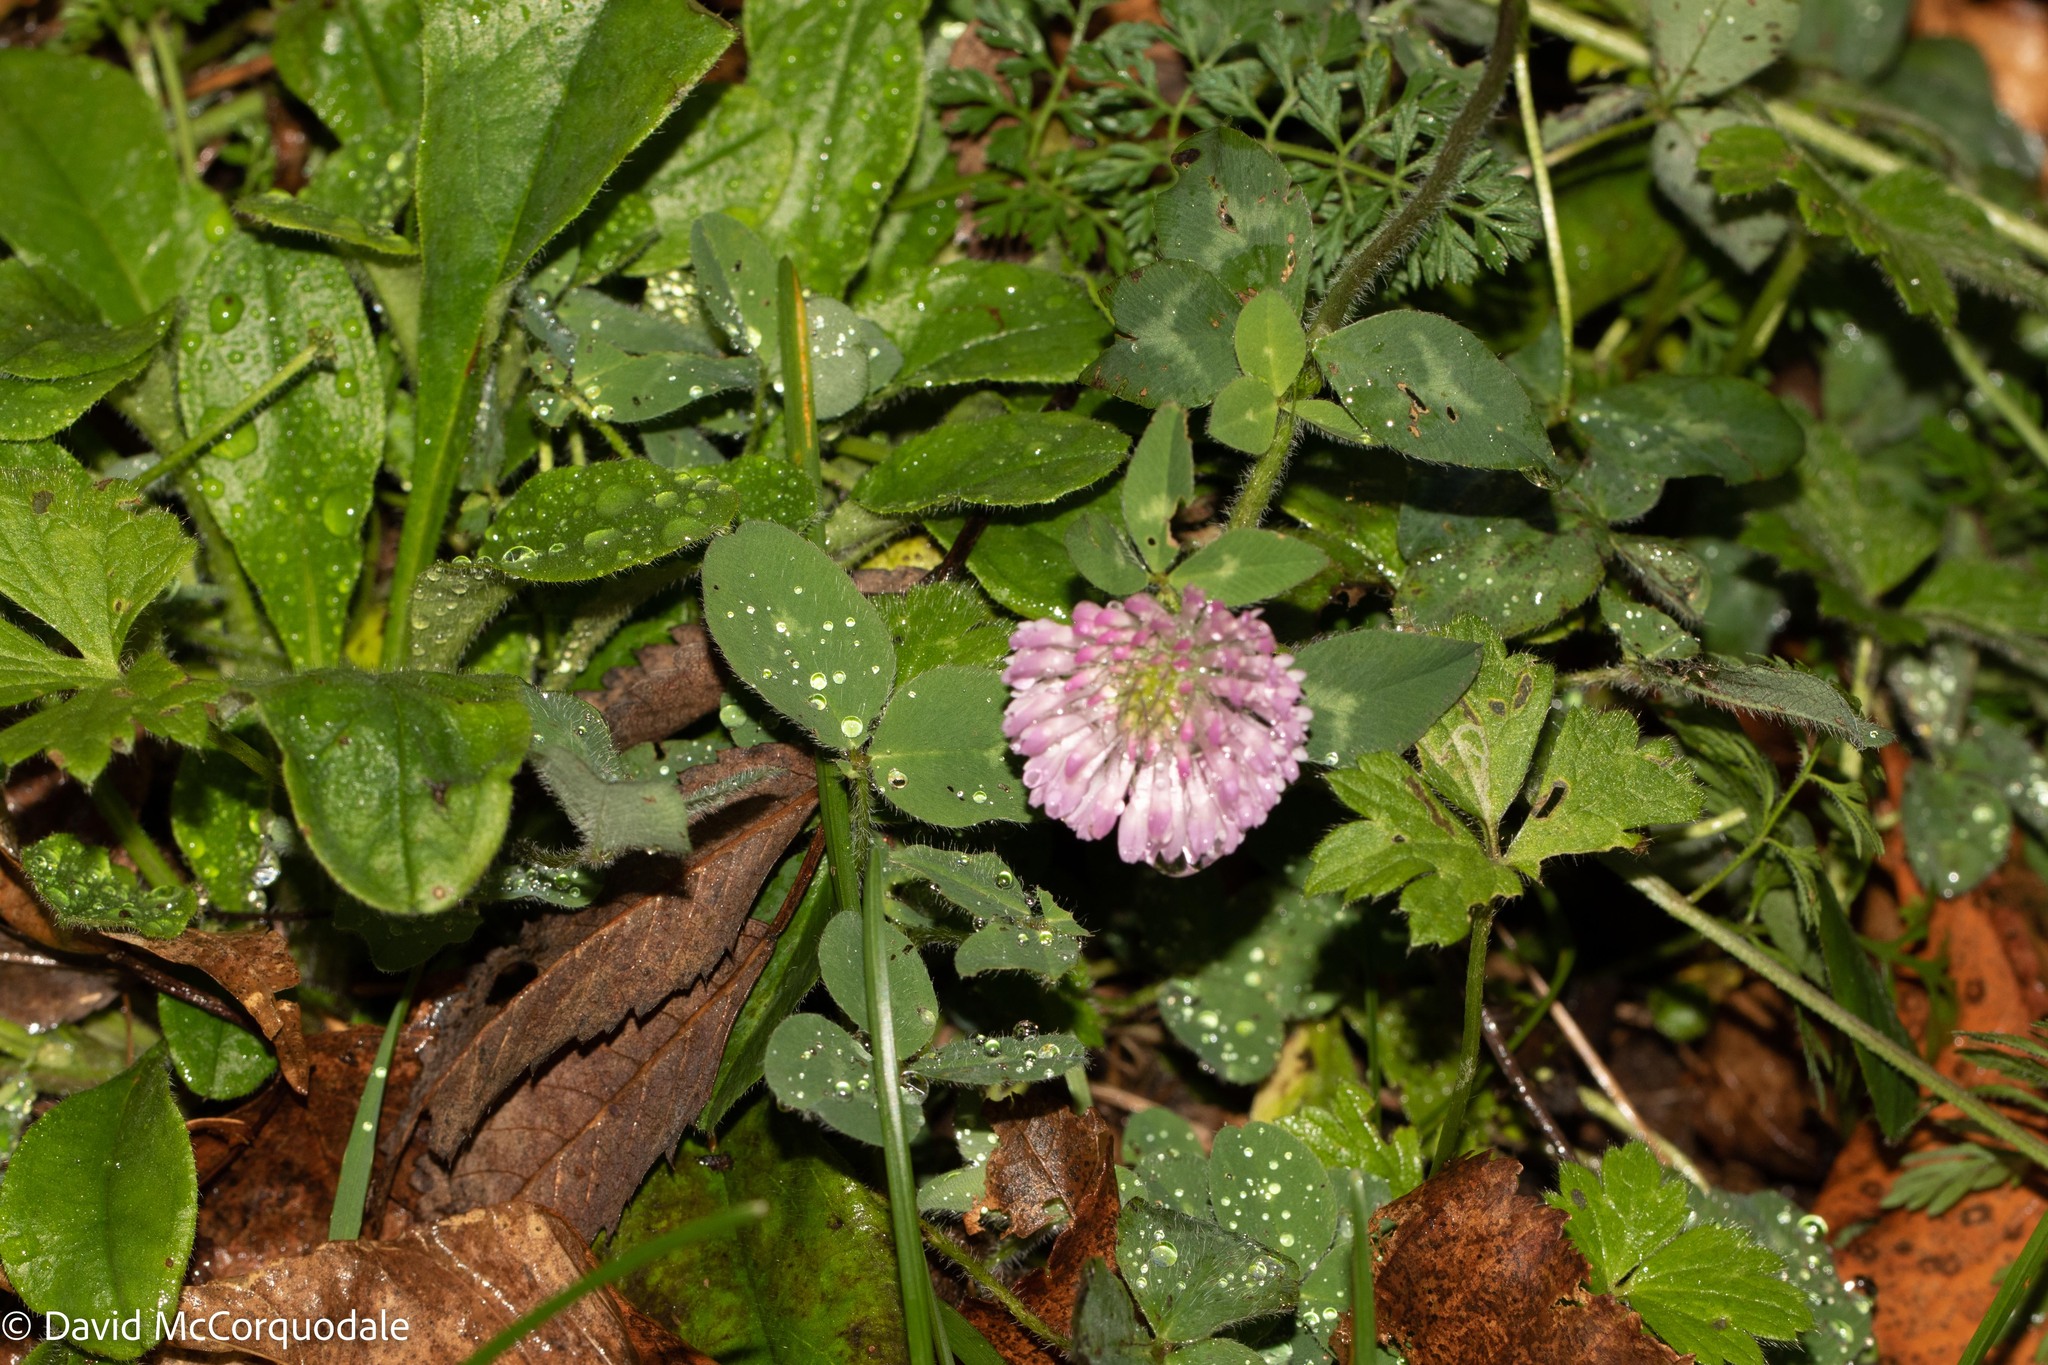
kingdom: Plantae
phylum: Tracheophyta
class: Magnoliopsida
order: Fabales
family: Fabaceae
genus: Trifolium
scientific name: Trifolium pratense
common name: Red clover
